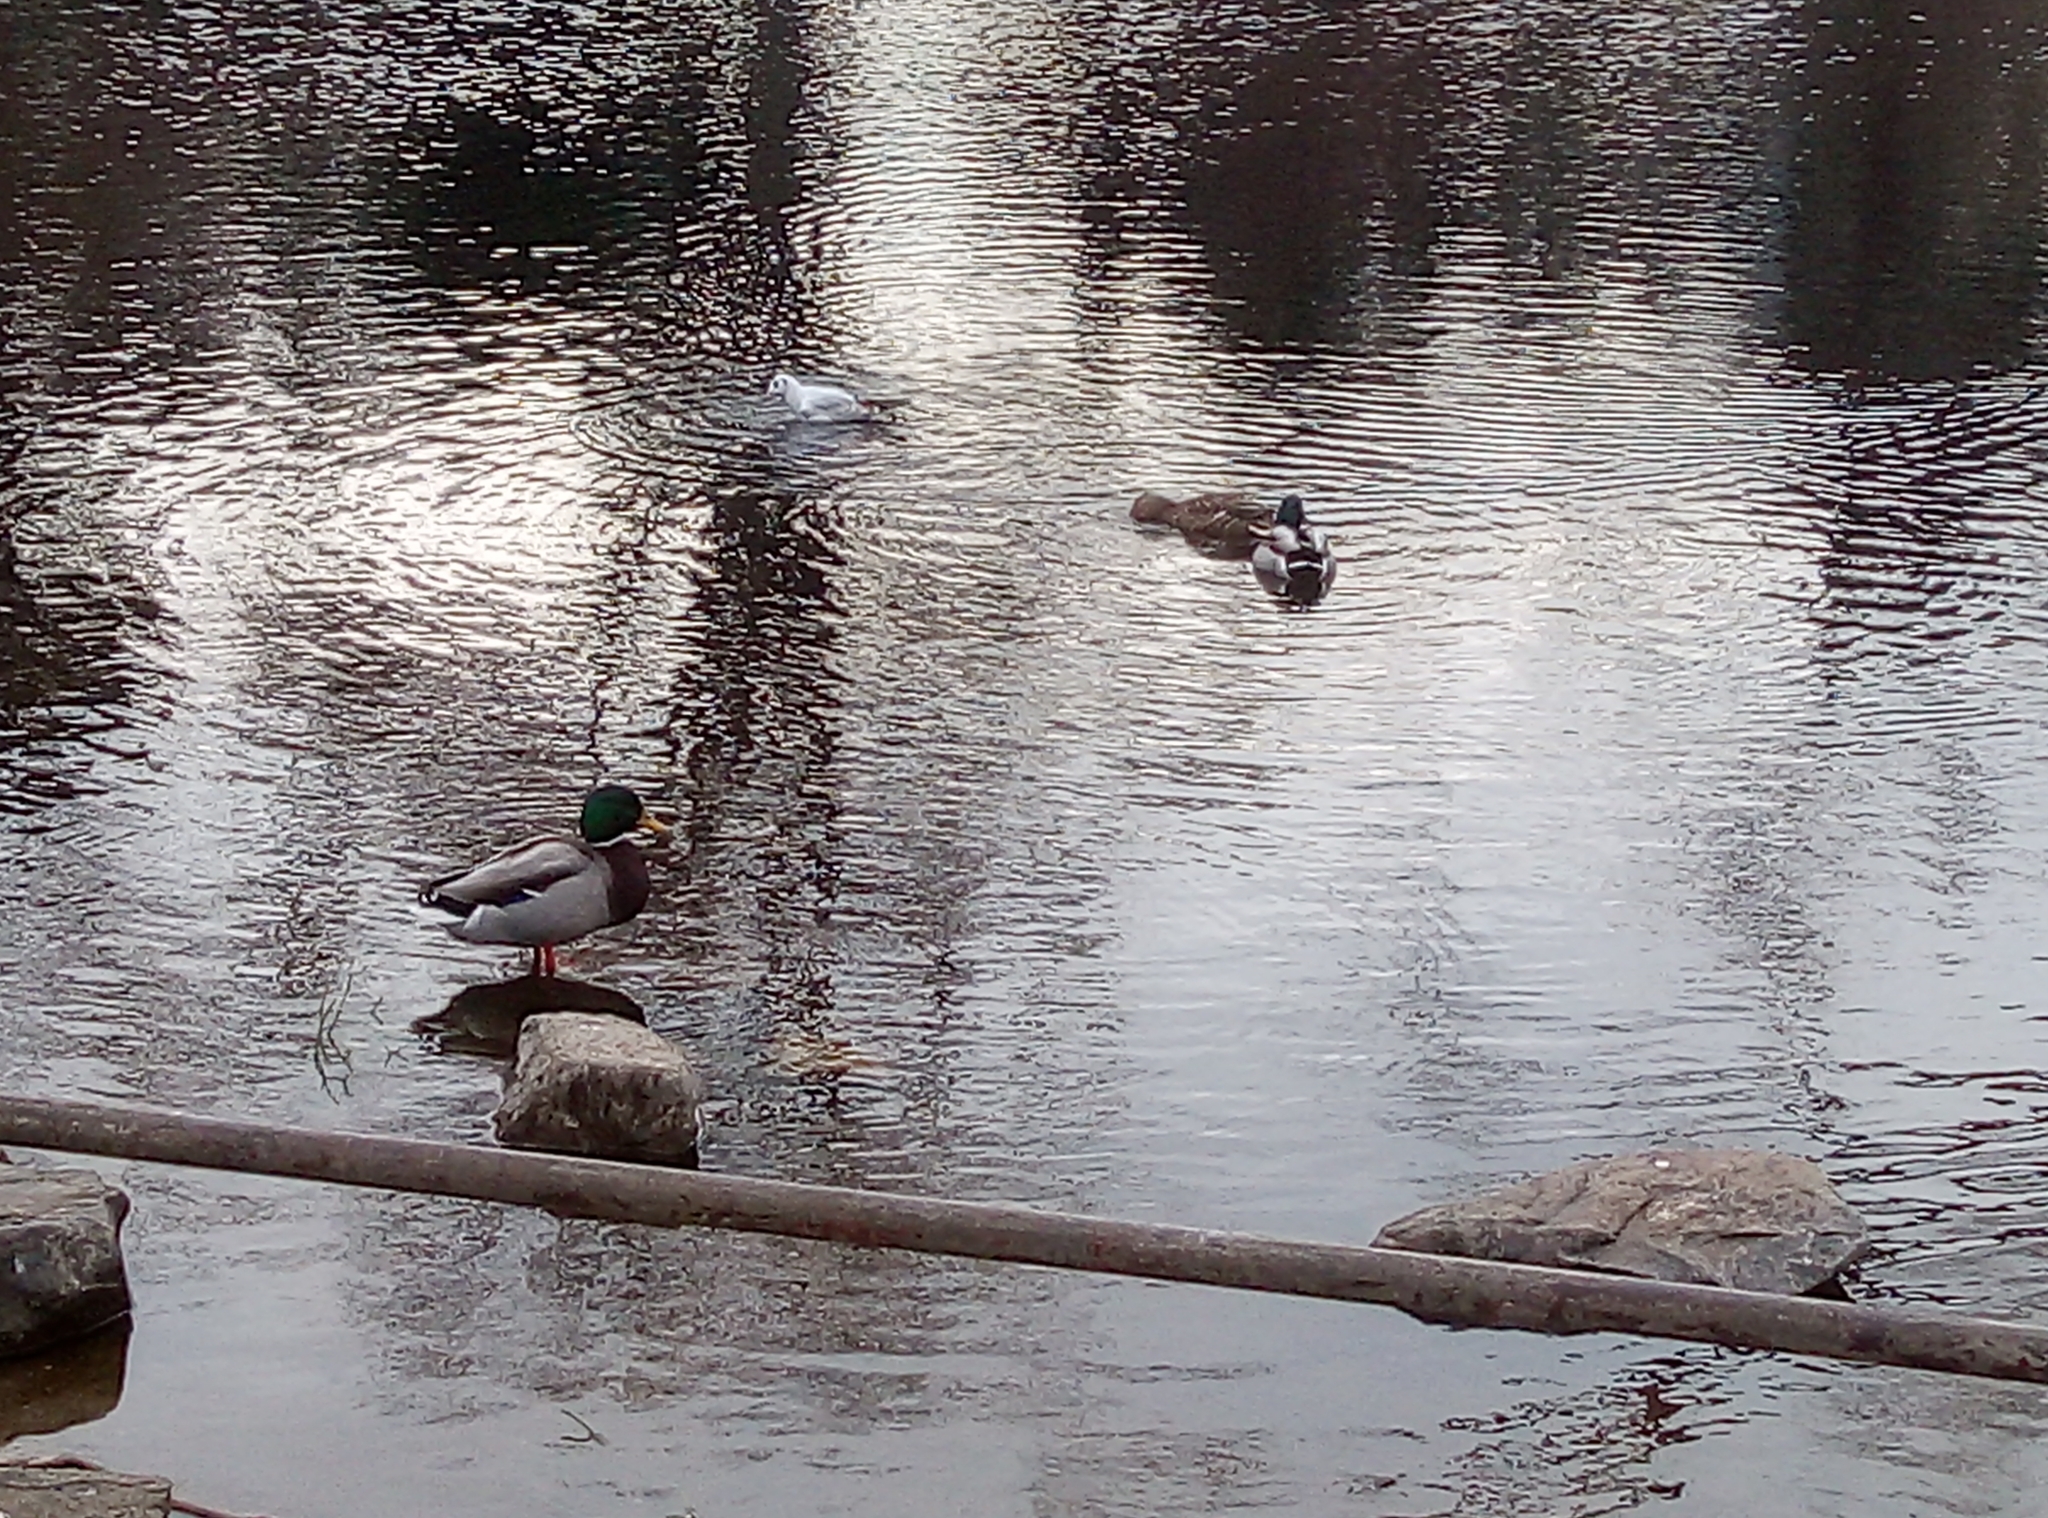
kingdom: Animalia
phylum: Chordata
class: Aves
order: Anseriformes
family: Anatidae
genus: Anas
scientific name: Anas platyrhynchos
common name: Mallard
